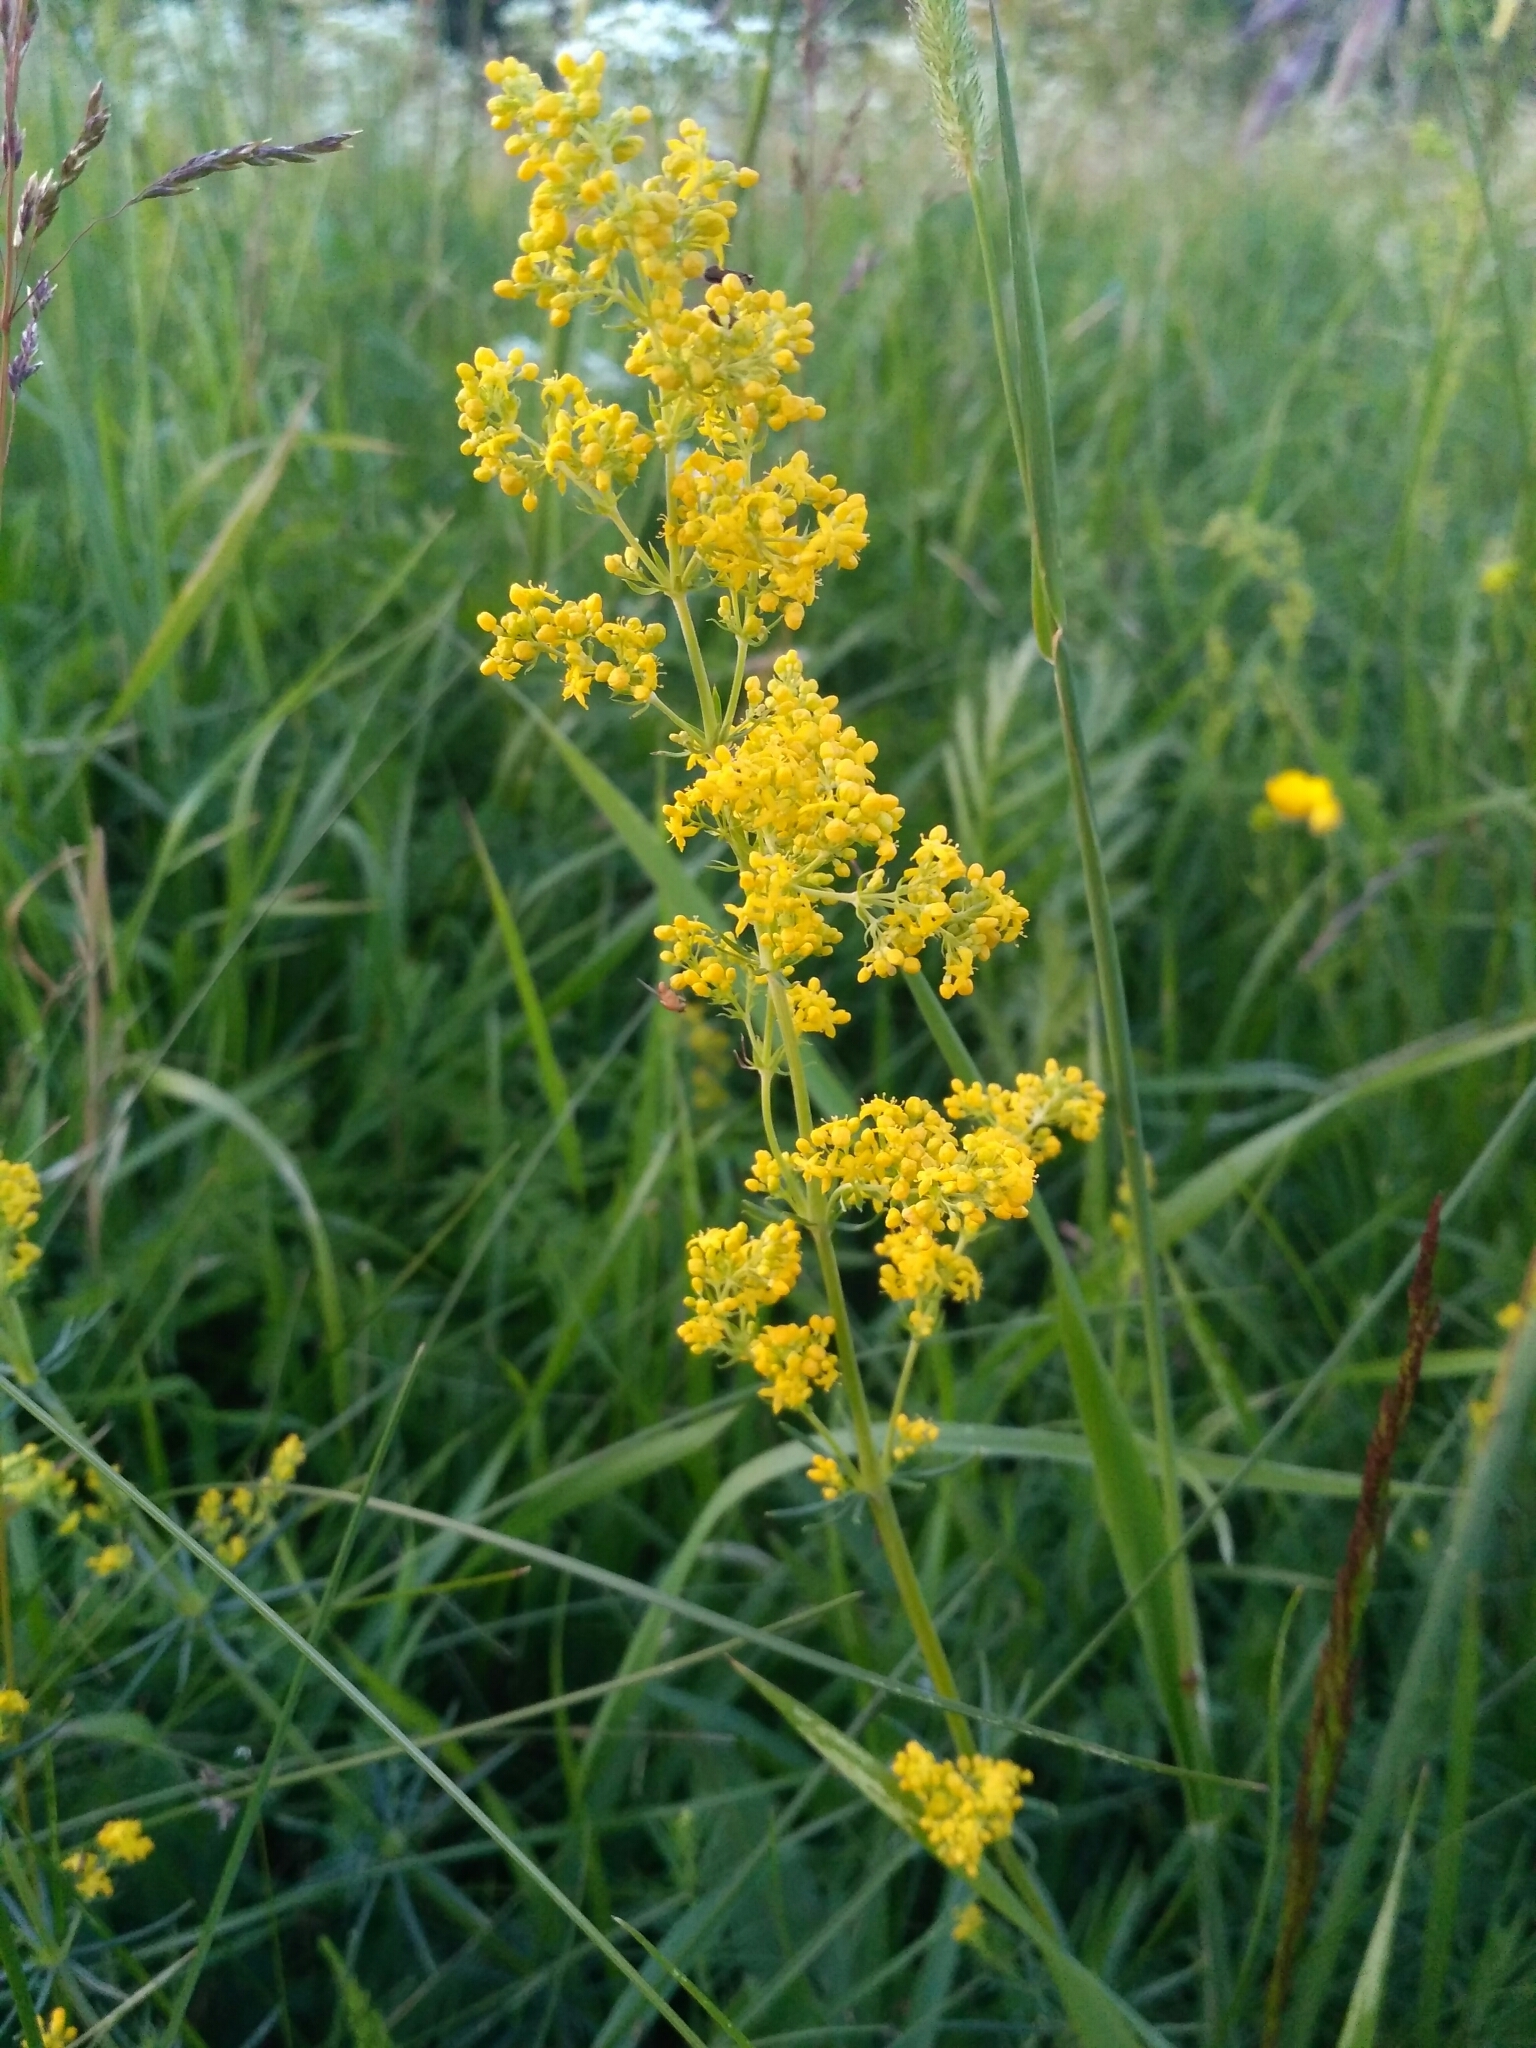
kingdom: Plantae
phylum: Tracheophyta
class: Magnoliopsida
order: Gentianales
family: Rubiaceae
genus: Galium
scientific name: Galium verum
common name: Lady's bedstraw
